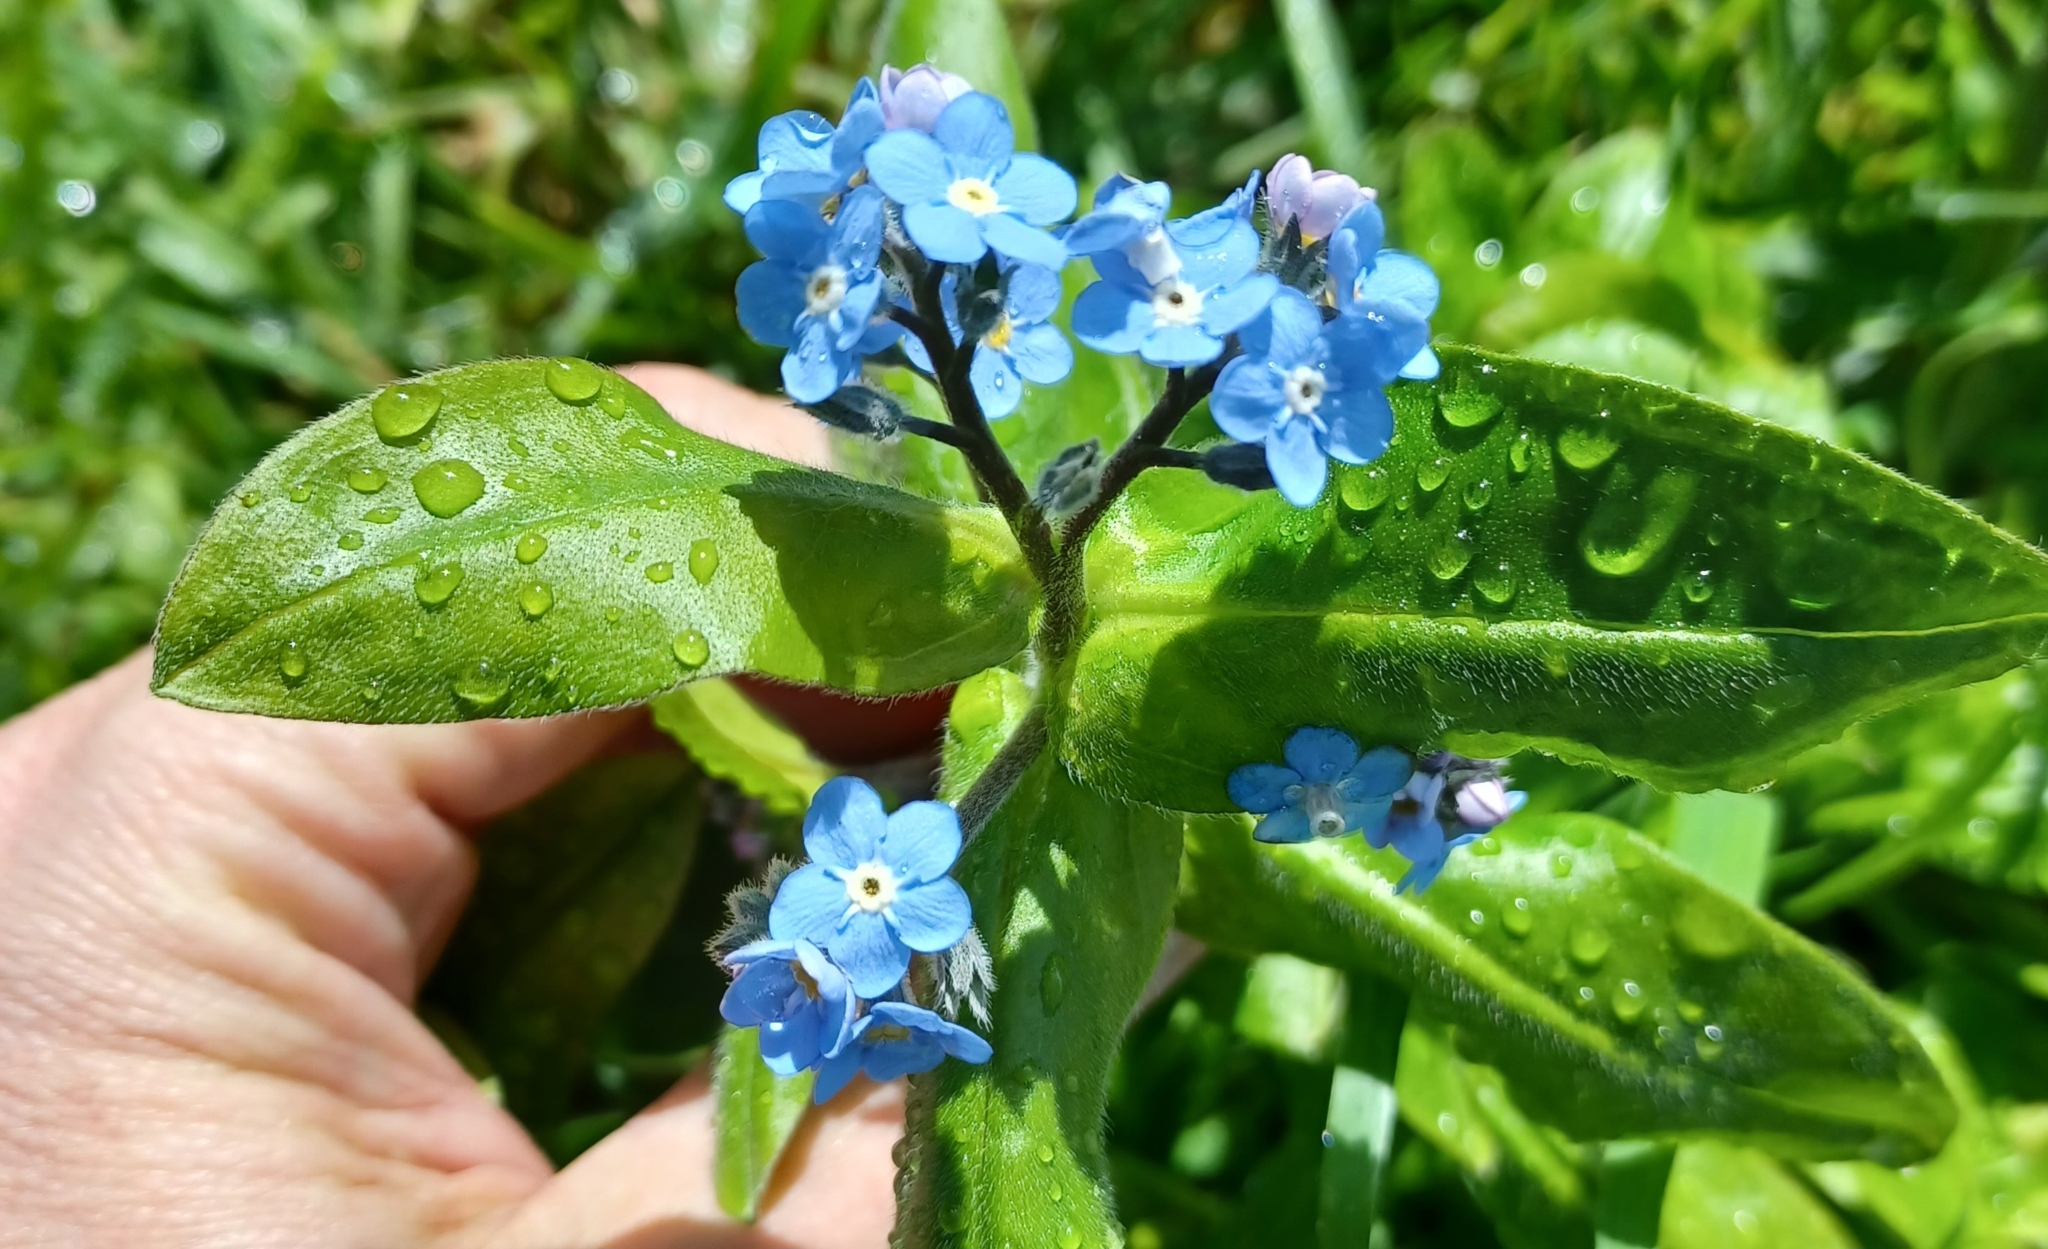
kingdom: Plantae
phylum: Tracheophyta
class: Magnoliopsida
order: Boraginales
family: Boraginaceae
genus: Myosotis
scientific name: Myosotis sylvatica
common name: Wood forget-me-not
